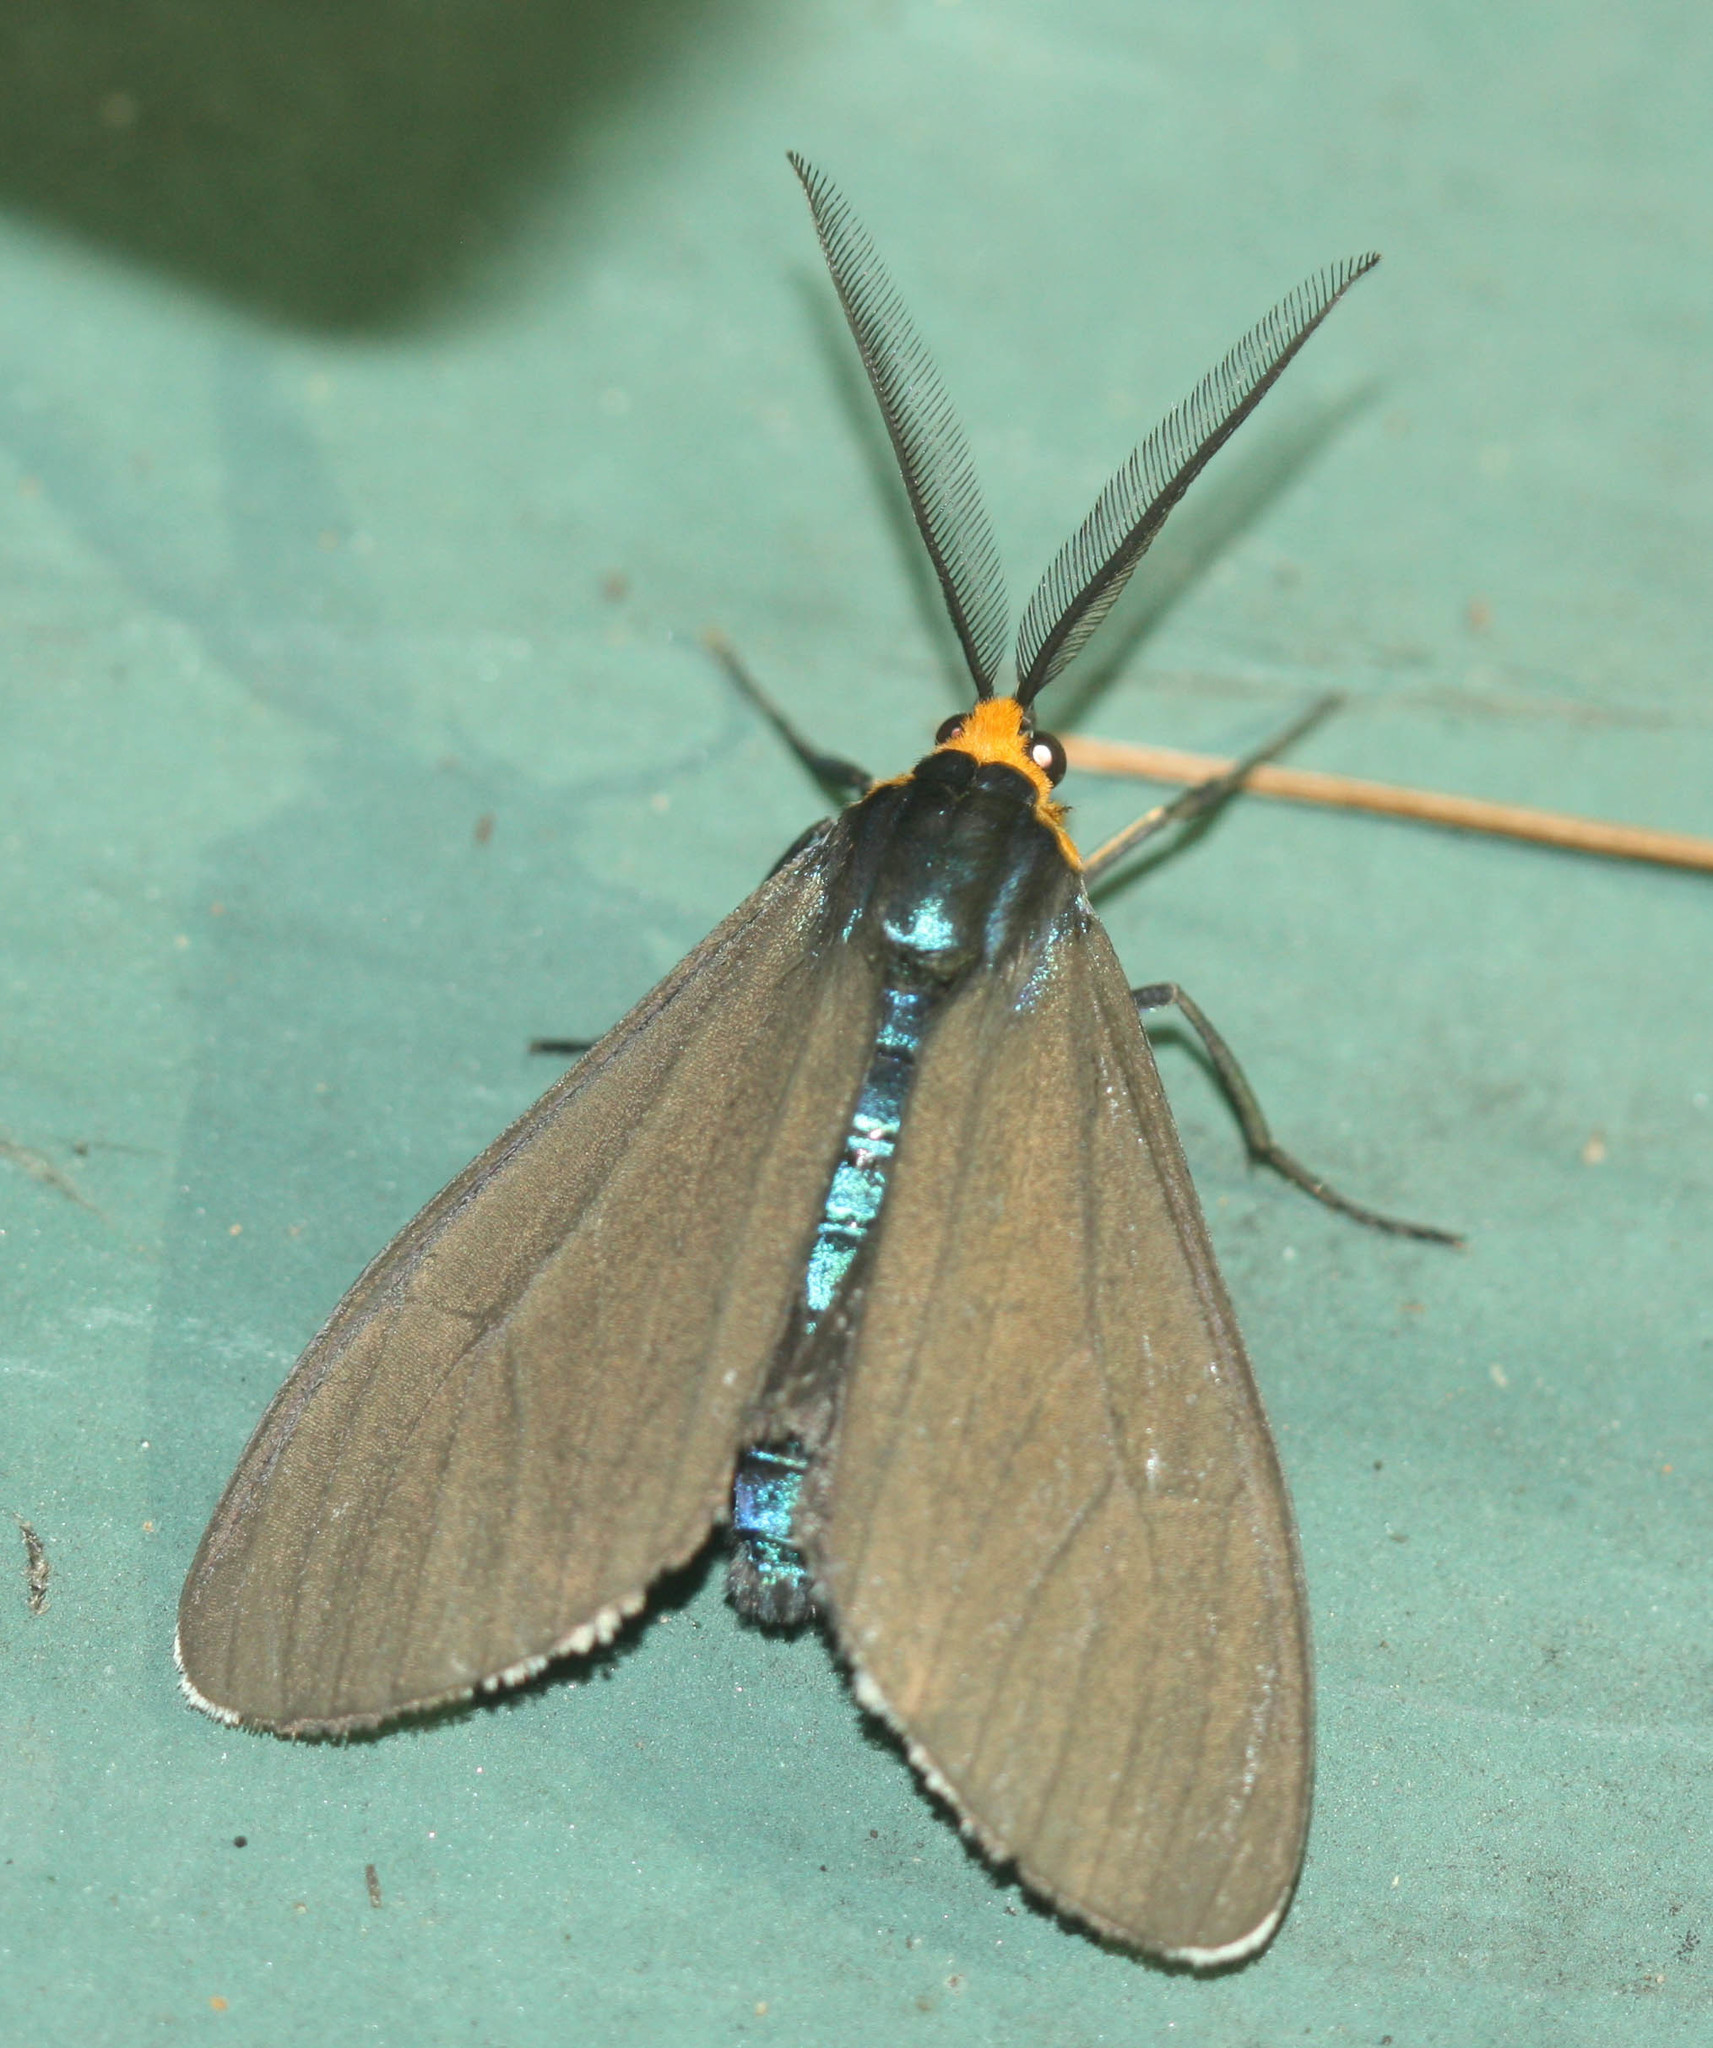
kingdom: Animalia
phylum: Arthropoda
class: Insecta
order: Lepidoptera
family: Erebidae
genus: Ctenucha
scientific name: Ctenucha virginica
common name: Virginia ctenucha moth
